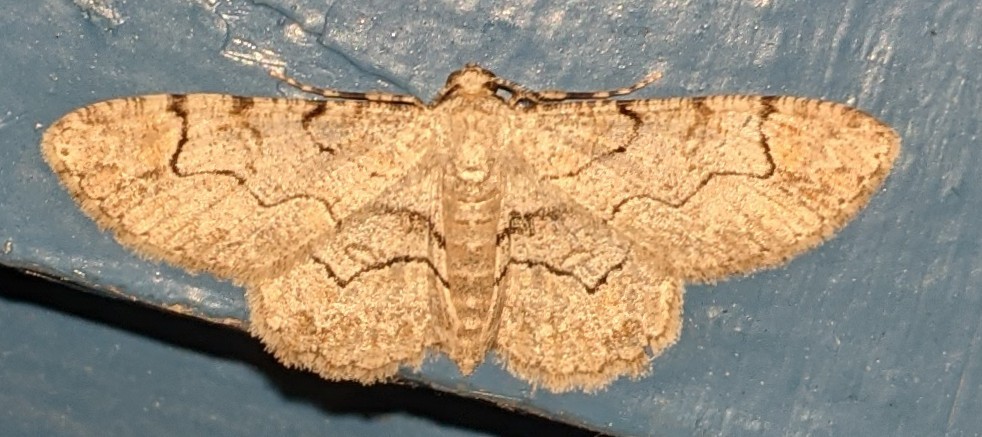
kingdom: Animalia
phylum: Arthropoda
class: Insecta
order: Lepidoptera
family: Geometridae
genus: Iridopsis
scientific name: Iridopsis larvaria
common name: Bent-line gray
